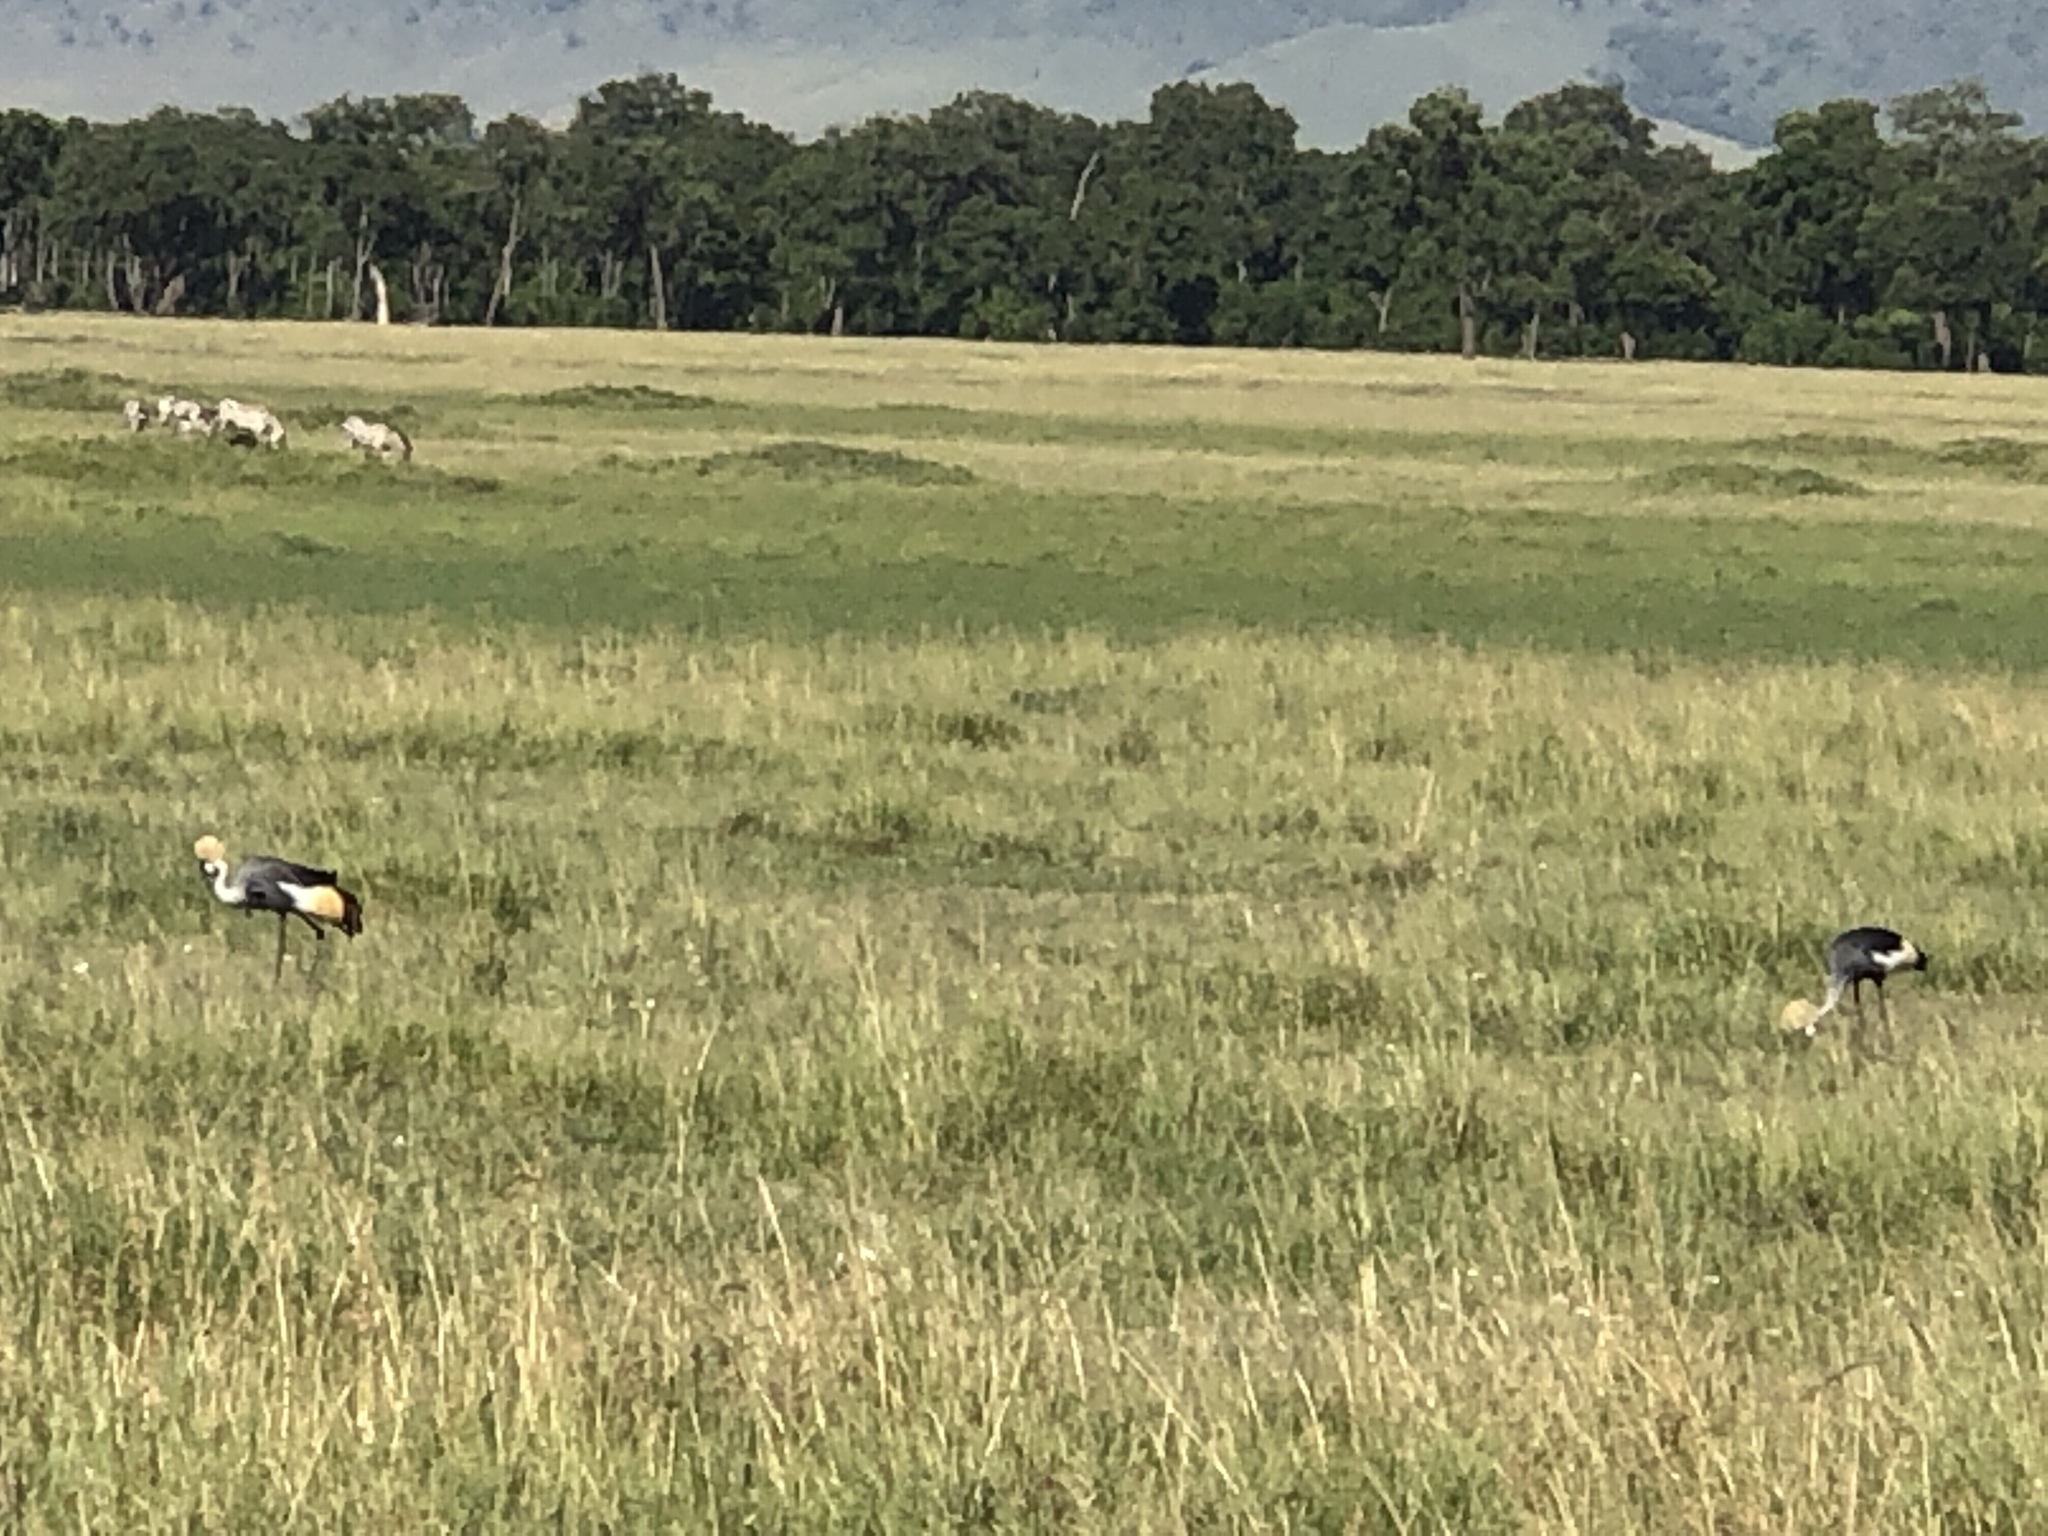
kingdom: Animalia
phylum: Chordata
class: Aves
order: Gruiformes
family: Gruidae
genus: Balearica
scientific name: Balearica regulorum
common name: Grey crowned crane
